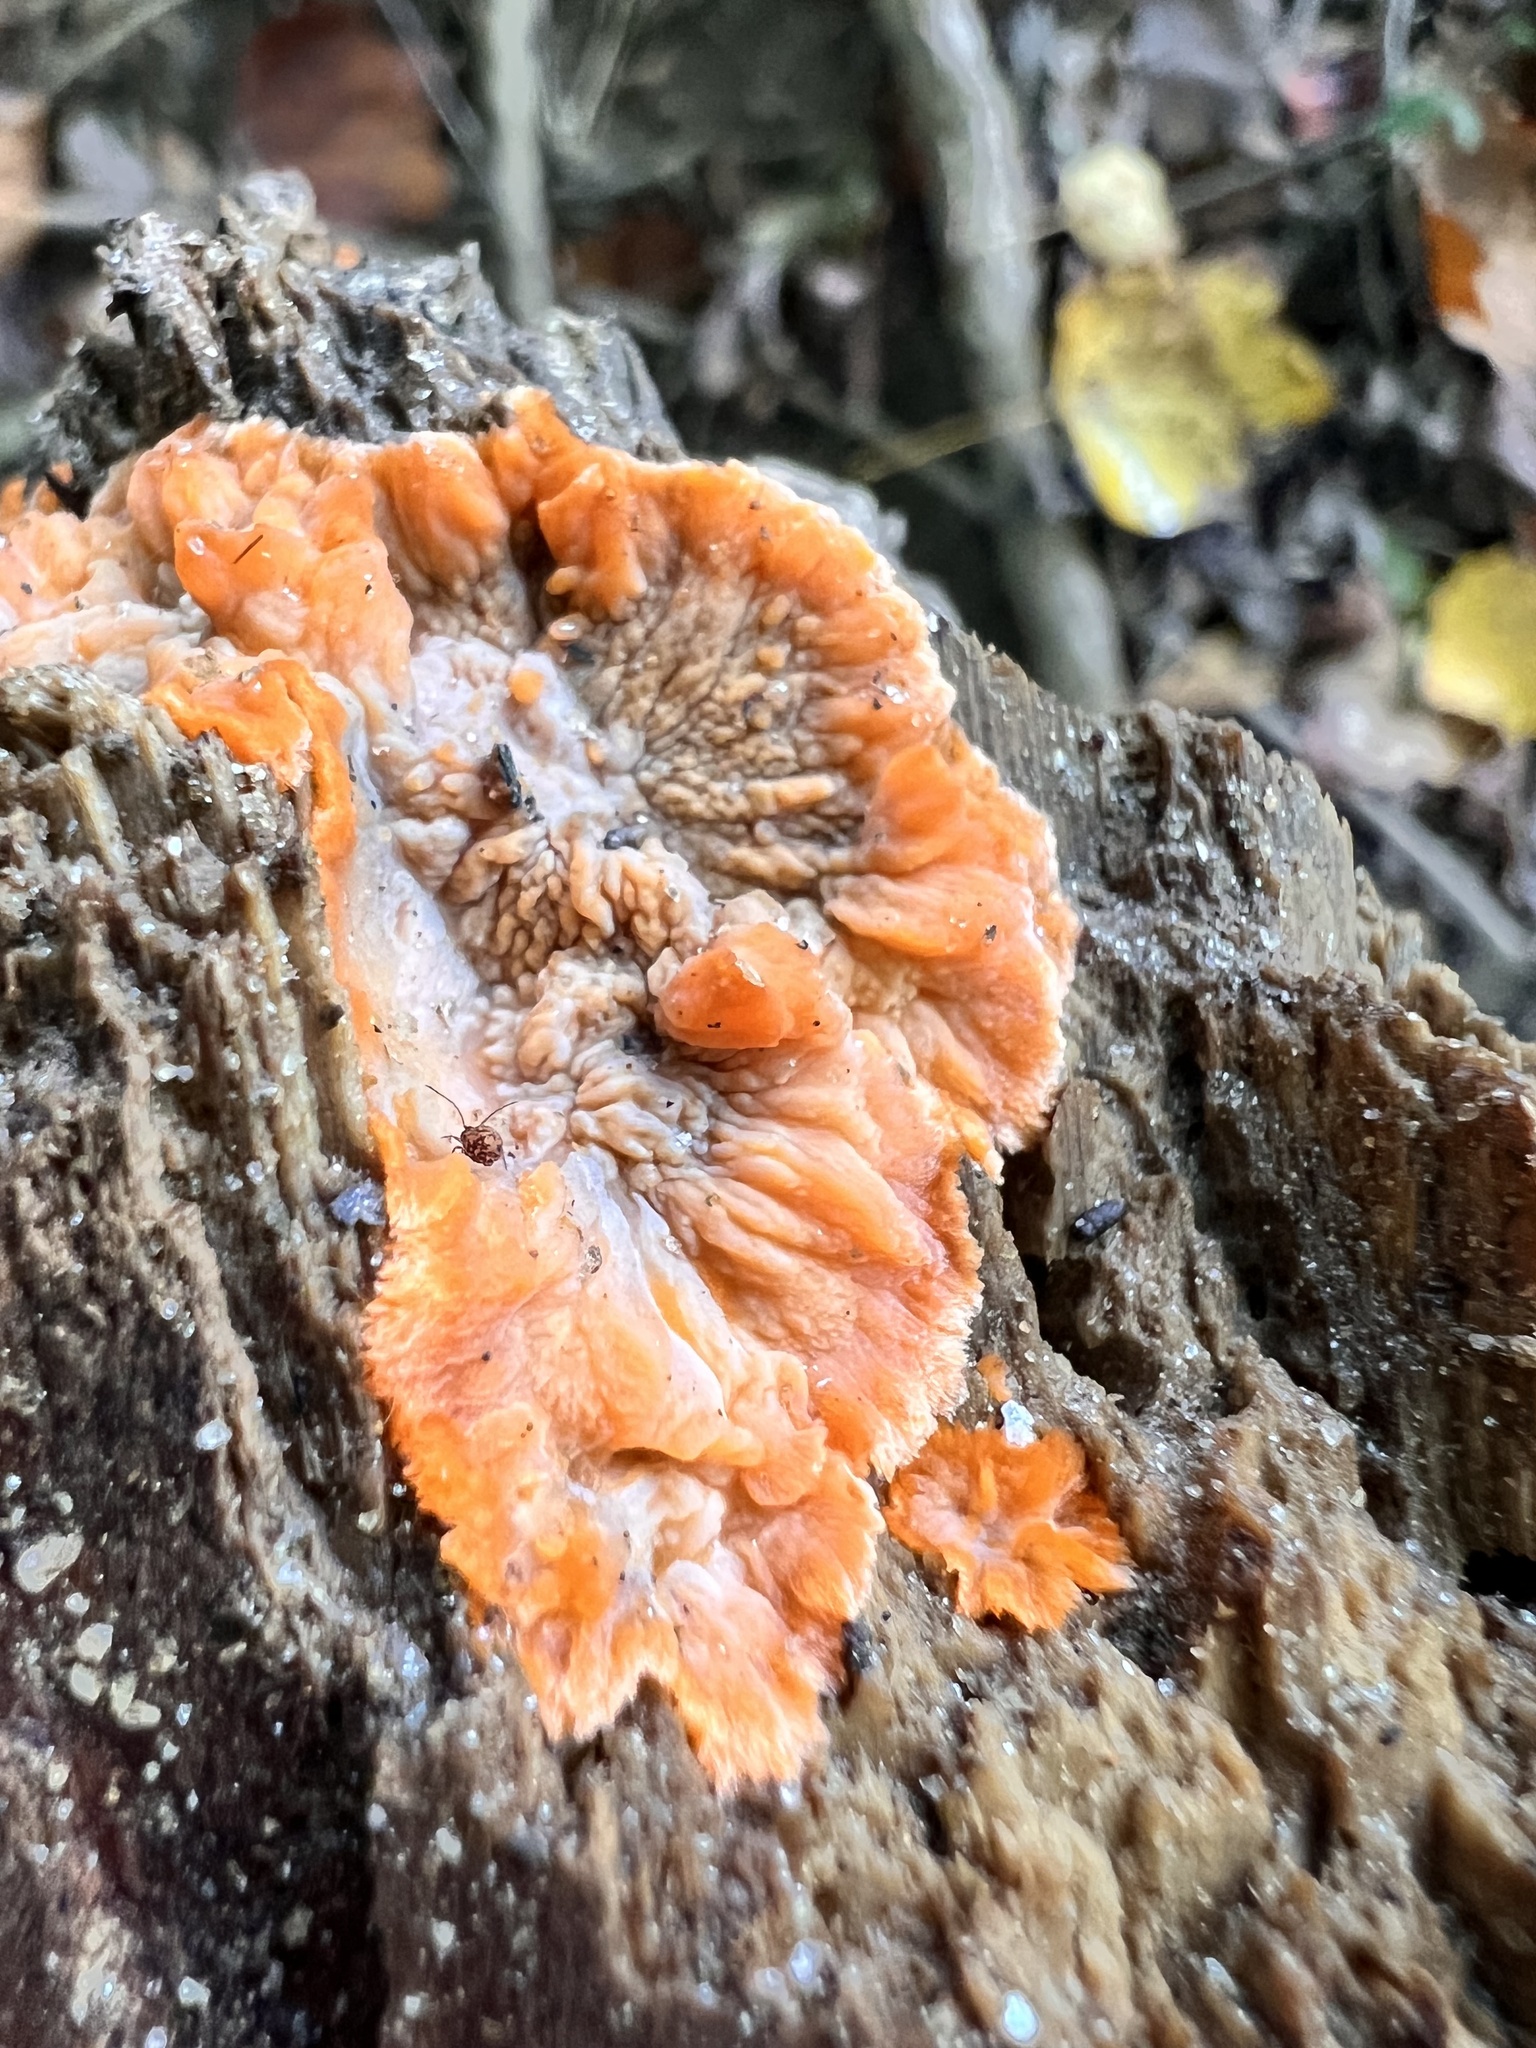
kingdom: Fungi
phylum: Basidiomycota
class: Agaricomycetes
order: Polyporales
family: Meruliaceae
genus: Phlebia
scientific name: Phlebia radiata
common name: Wrinkled crust
